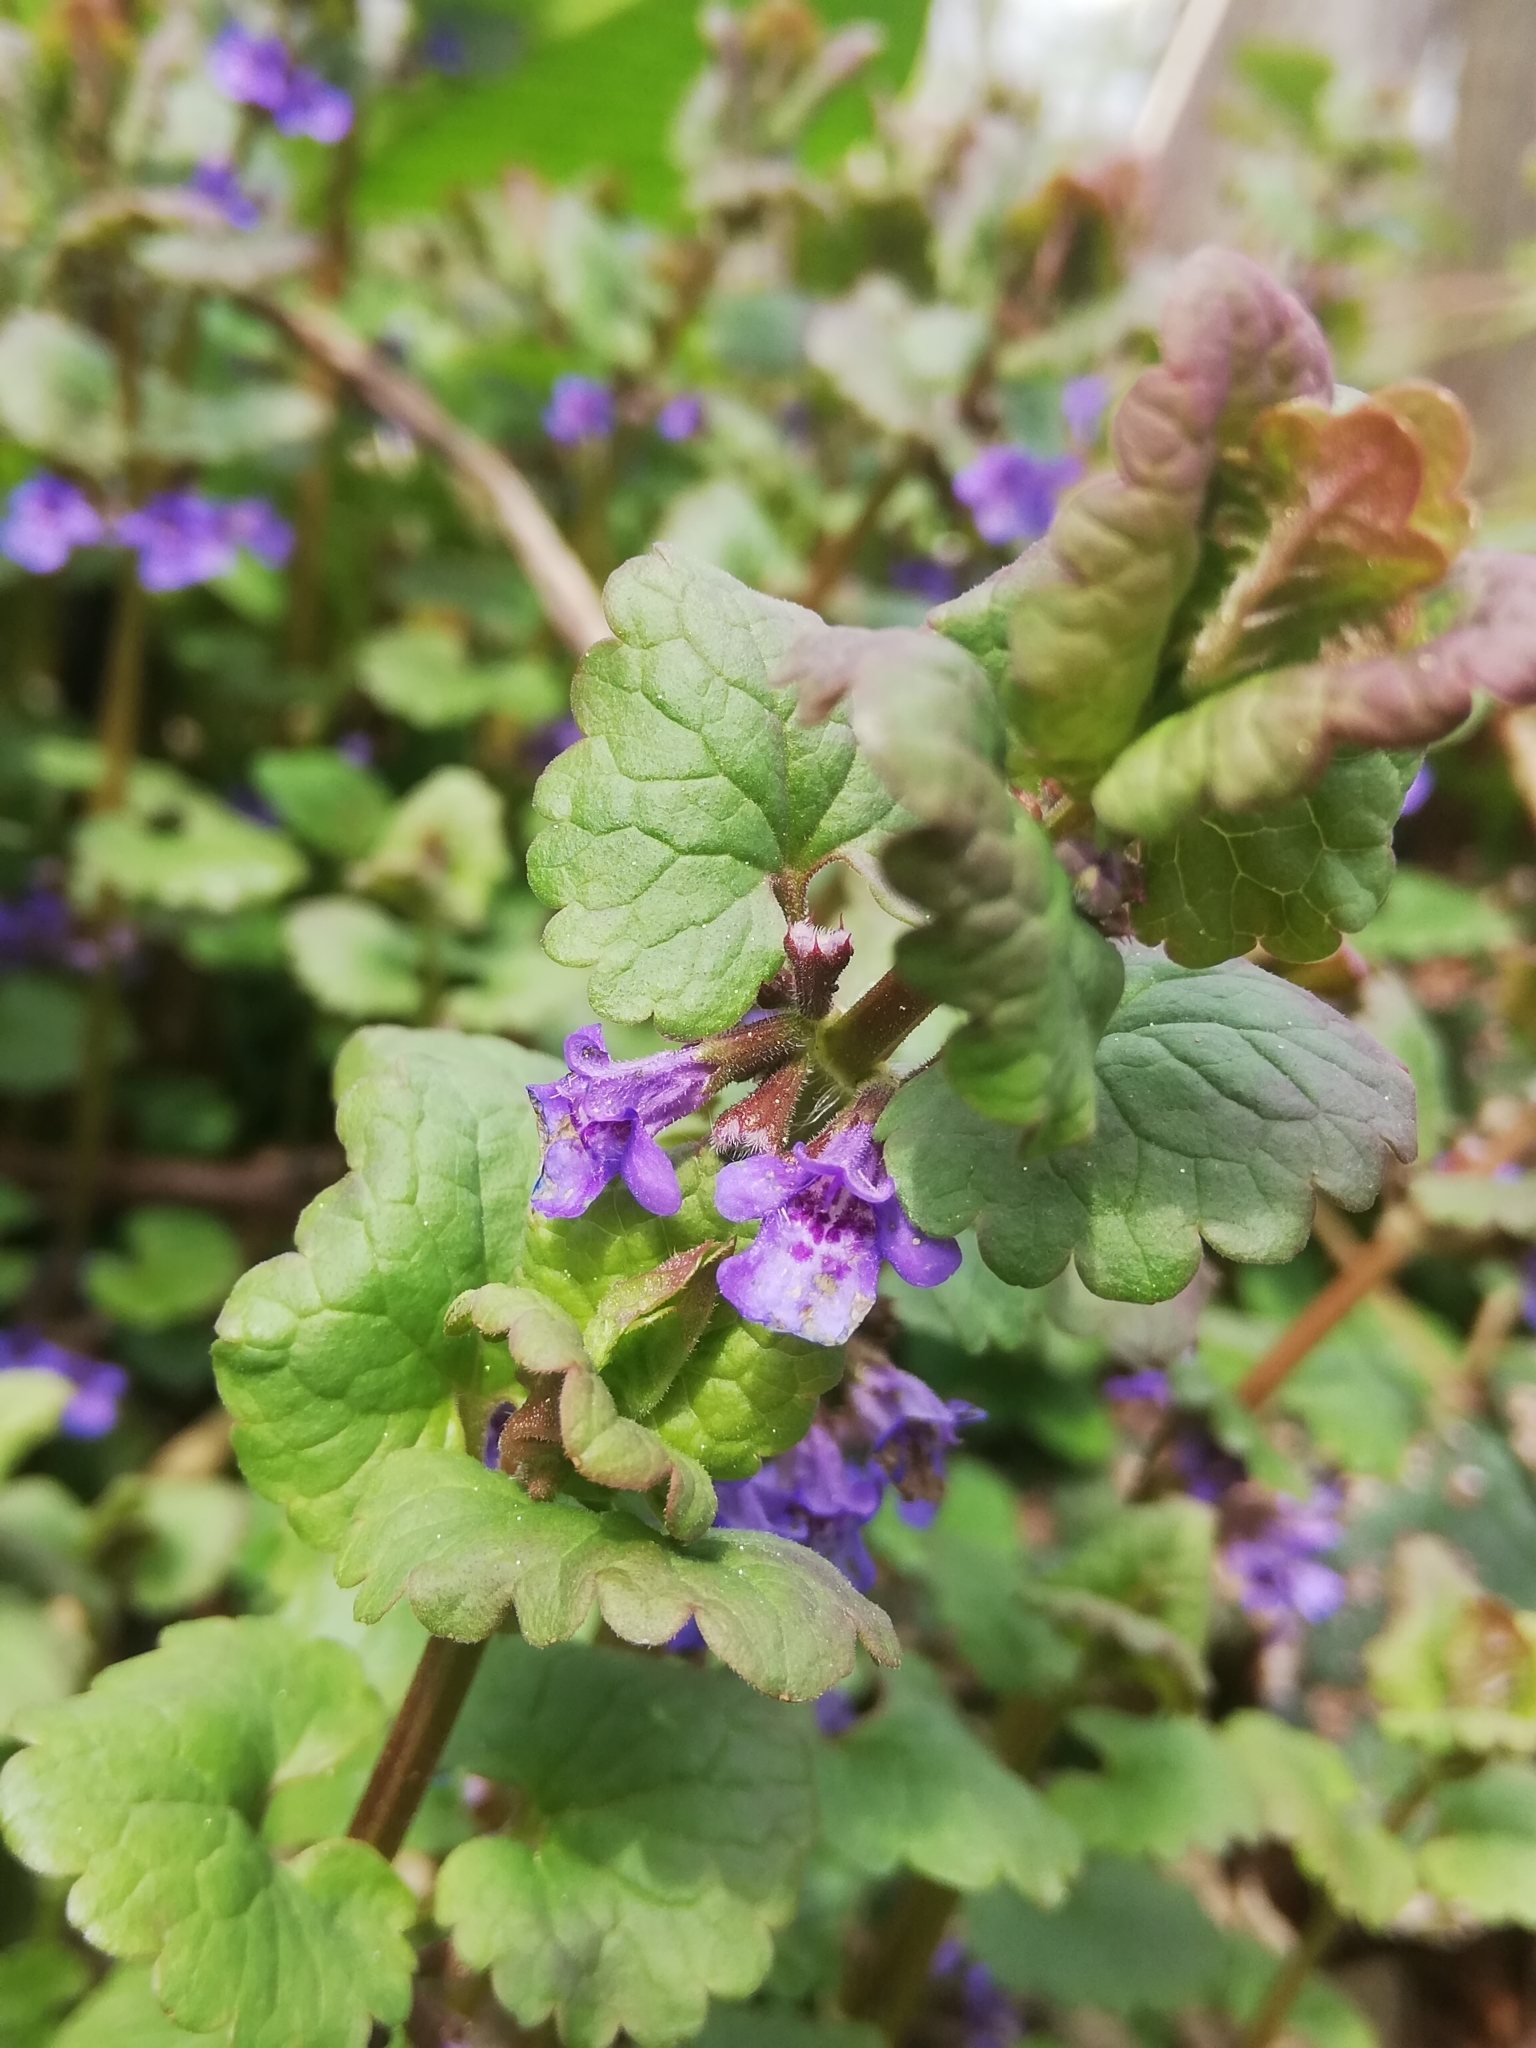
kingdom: Plantae
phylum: Tracheophyta
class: Magnoliopsida
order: Lamiales
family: Lamiaceae
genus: Glechoma
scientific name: Glechoma hederacea
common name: Ground ivy
